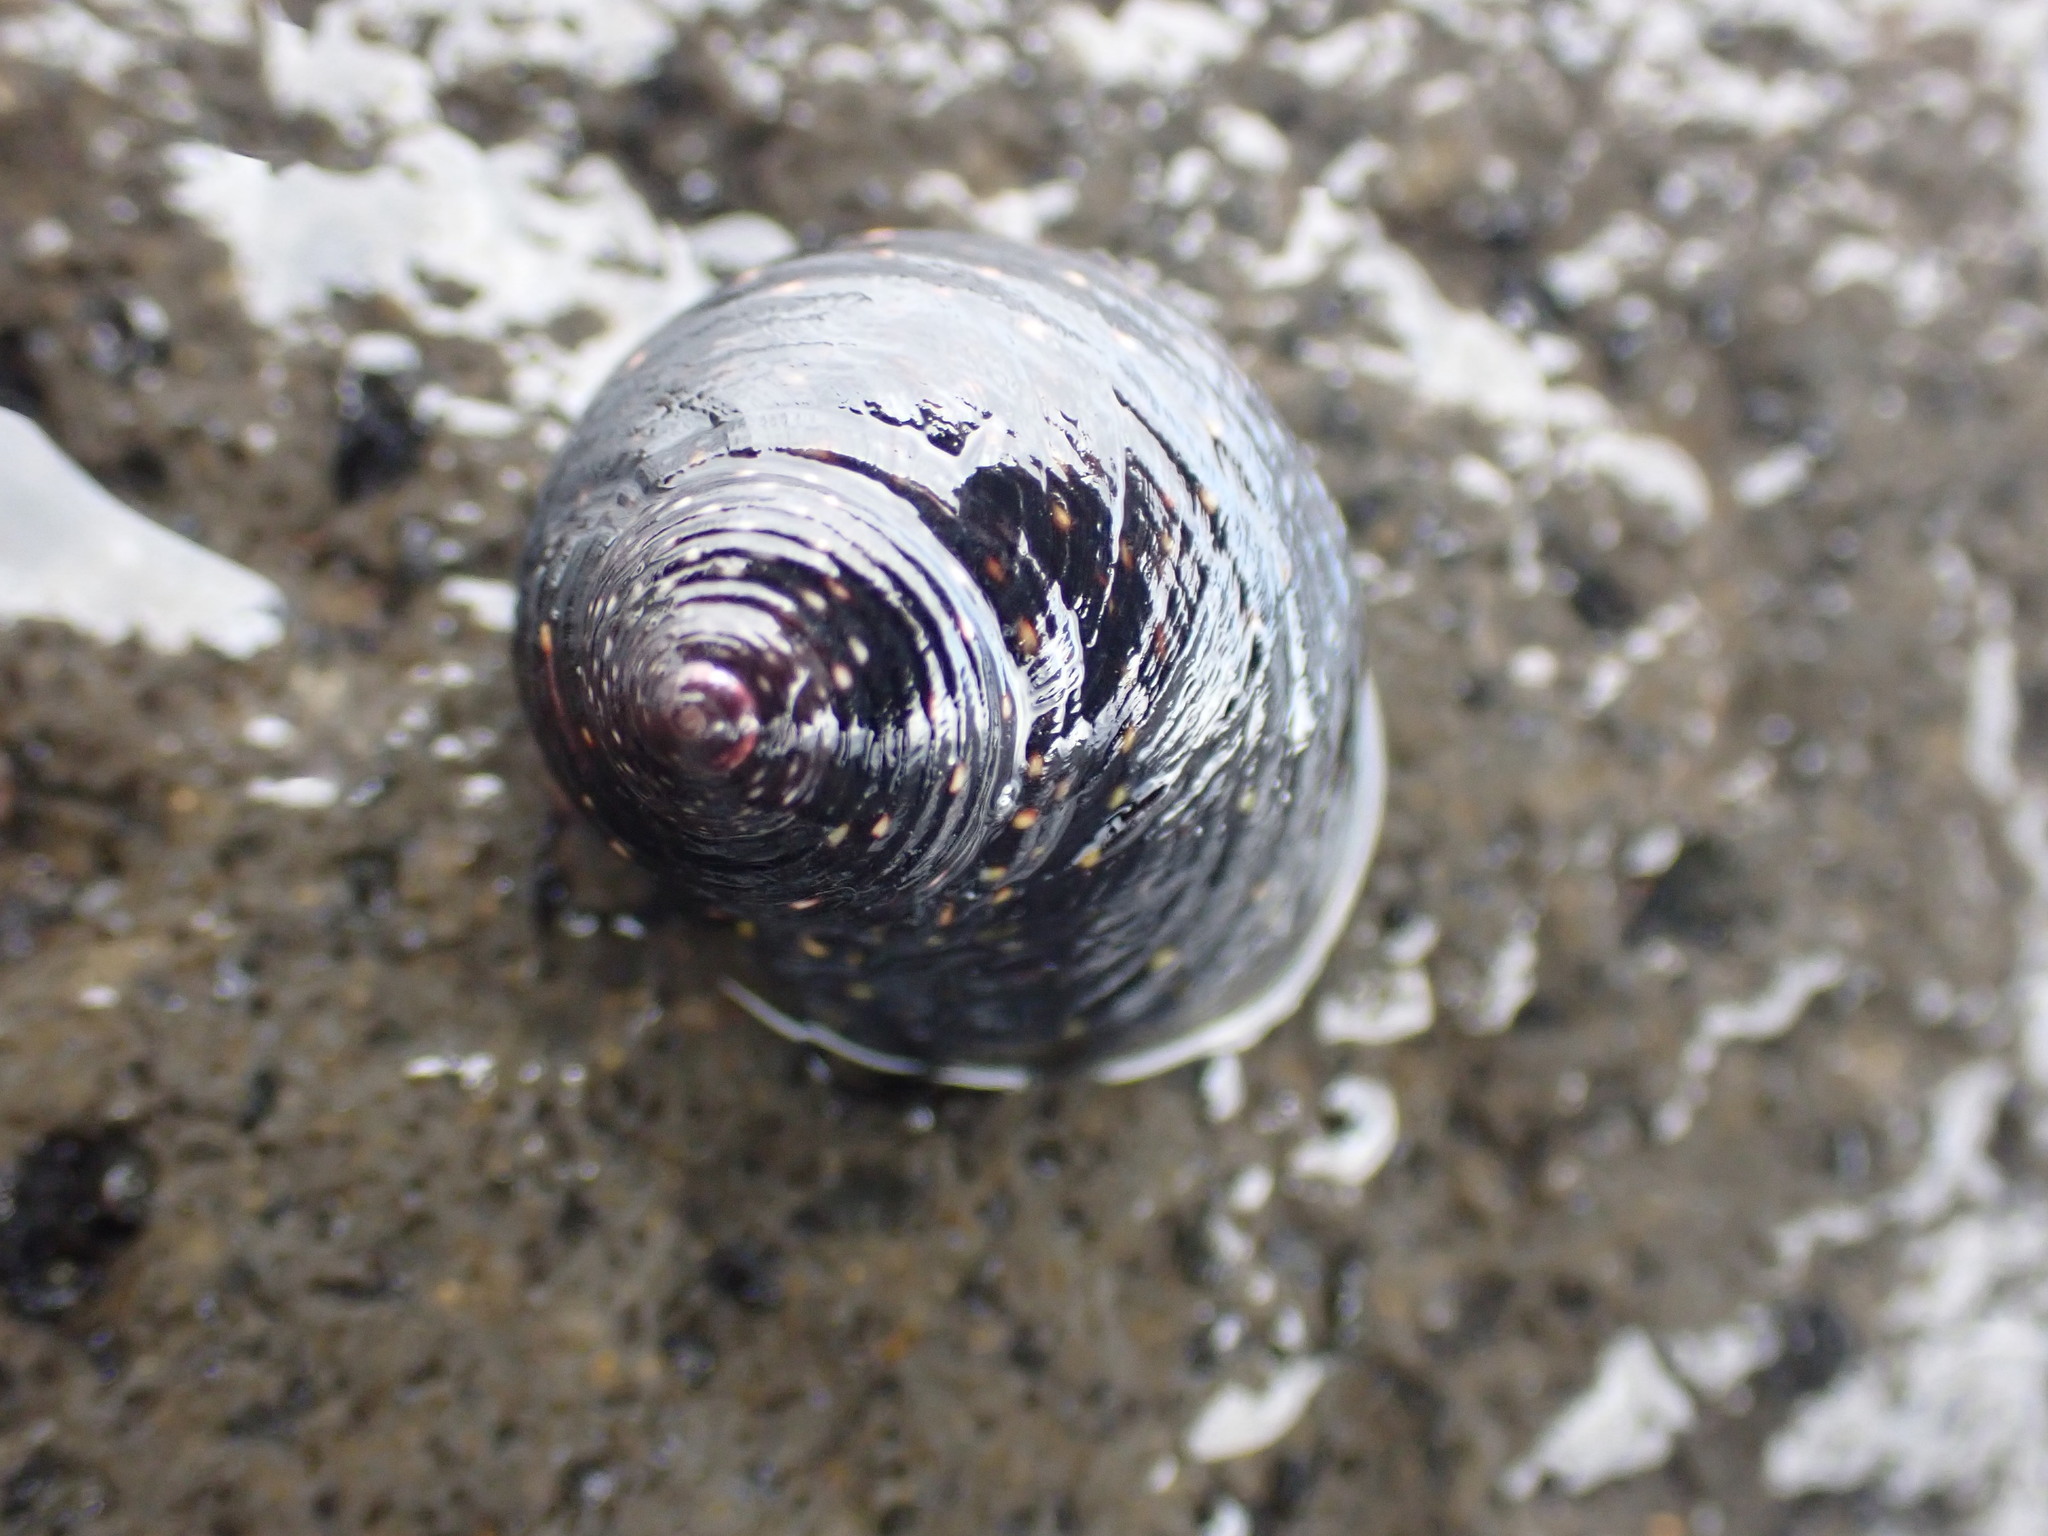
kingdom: Animalia
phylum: Mollusca
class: Gastropoda
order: Trochida
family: Trochidae
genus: Diloma
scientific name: Diloma aridum
